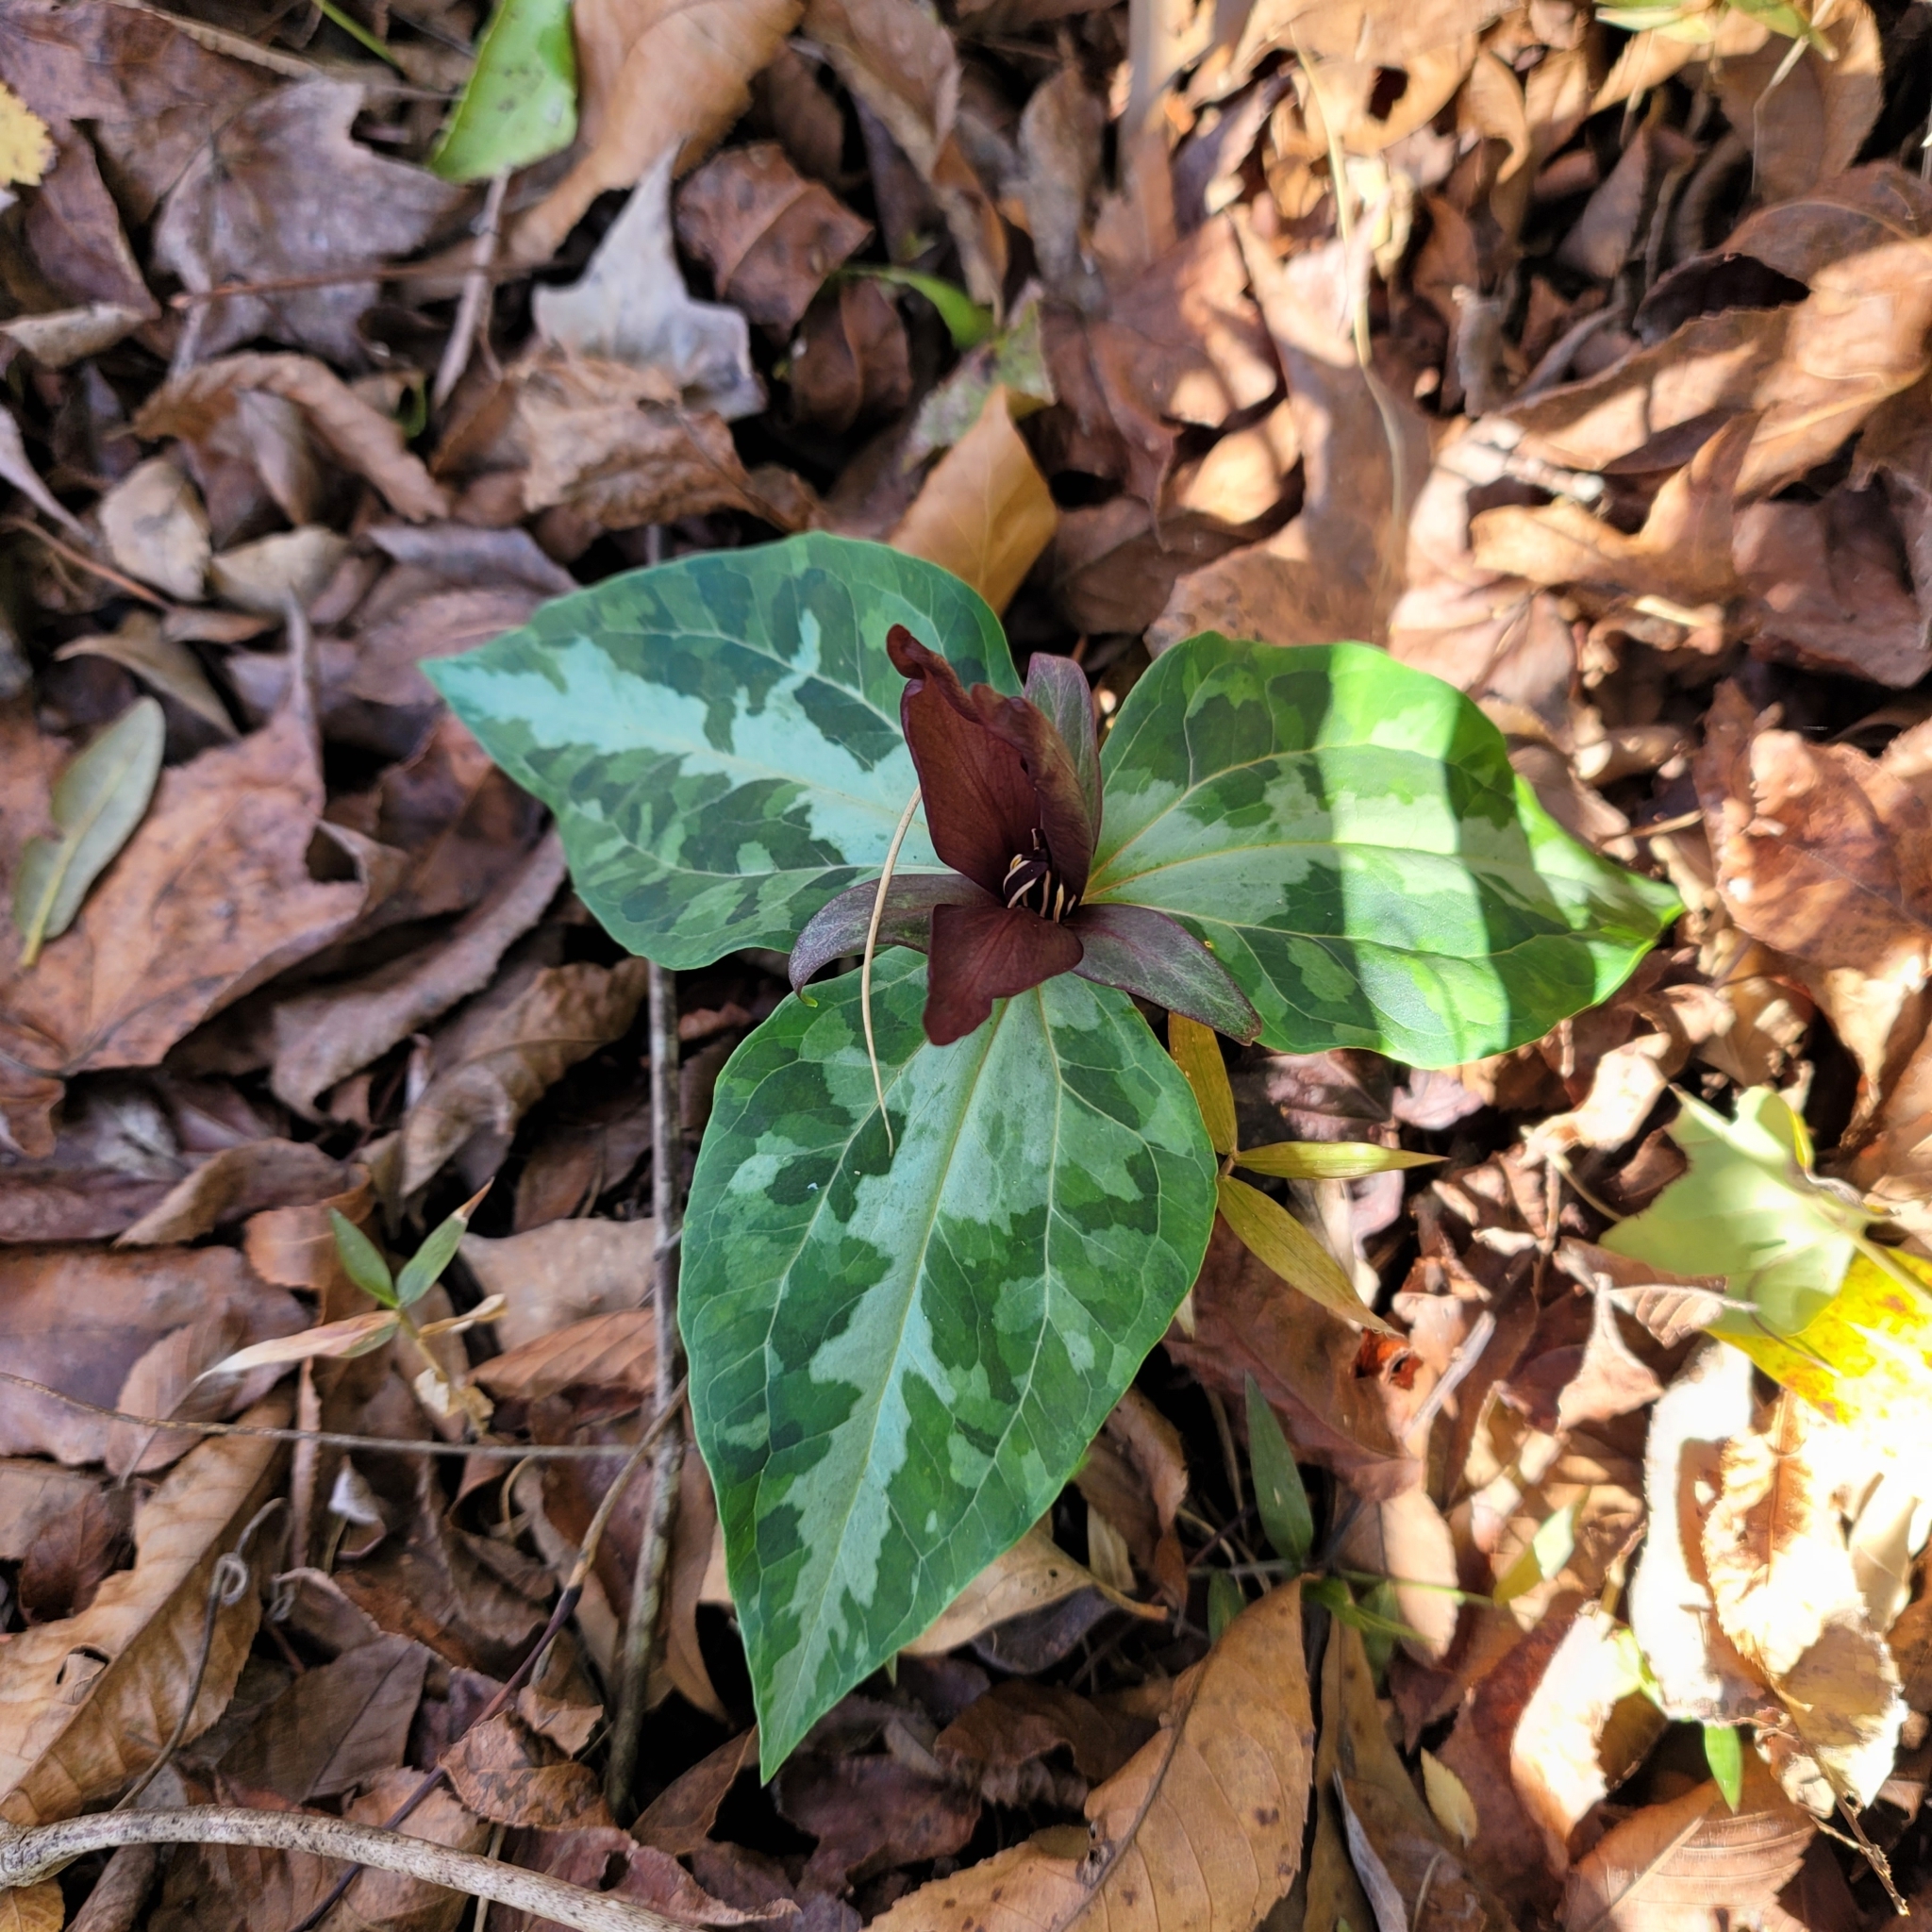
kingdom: Plantae
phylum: Tracheophyta
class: Liliopsida
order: Liliales
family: Melanthiaceae
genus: Trillium
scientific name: Trillium underwoodii
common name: Longbract wakerobin
